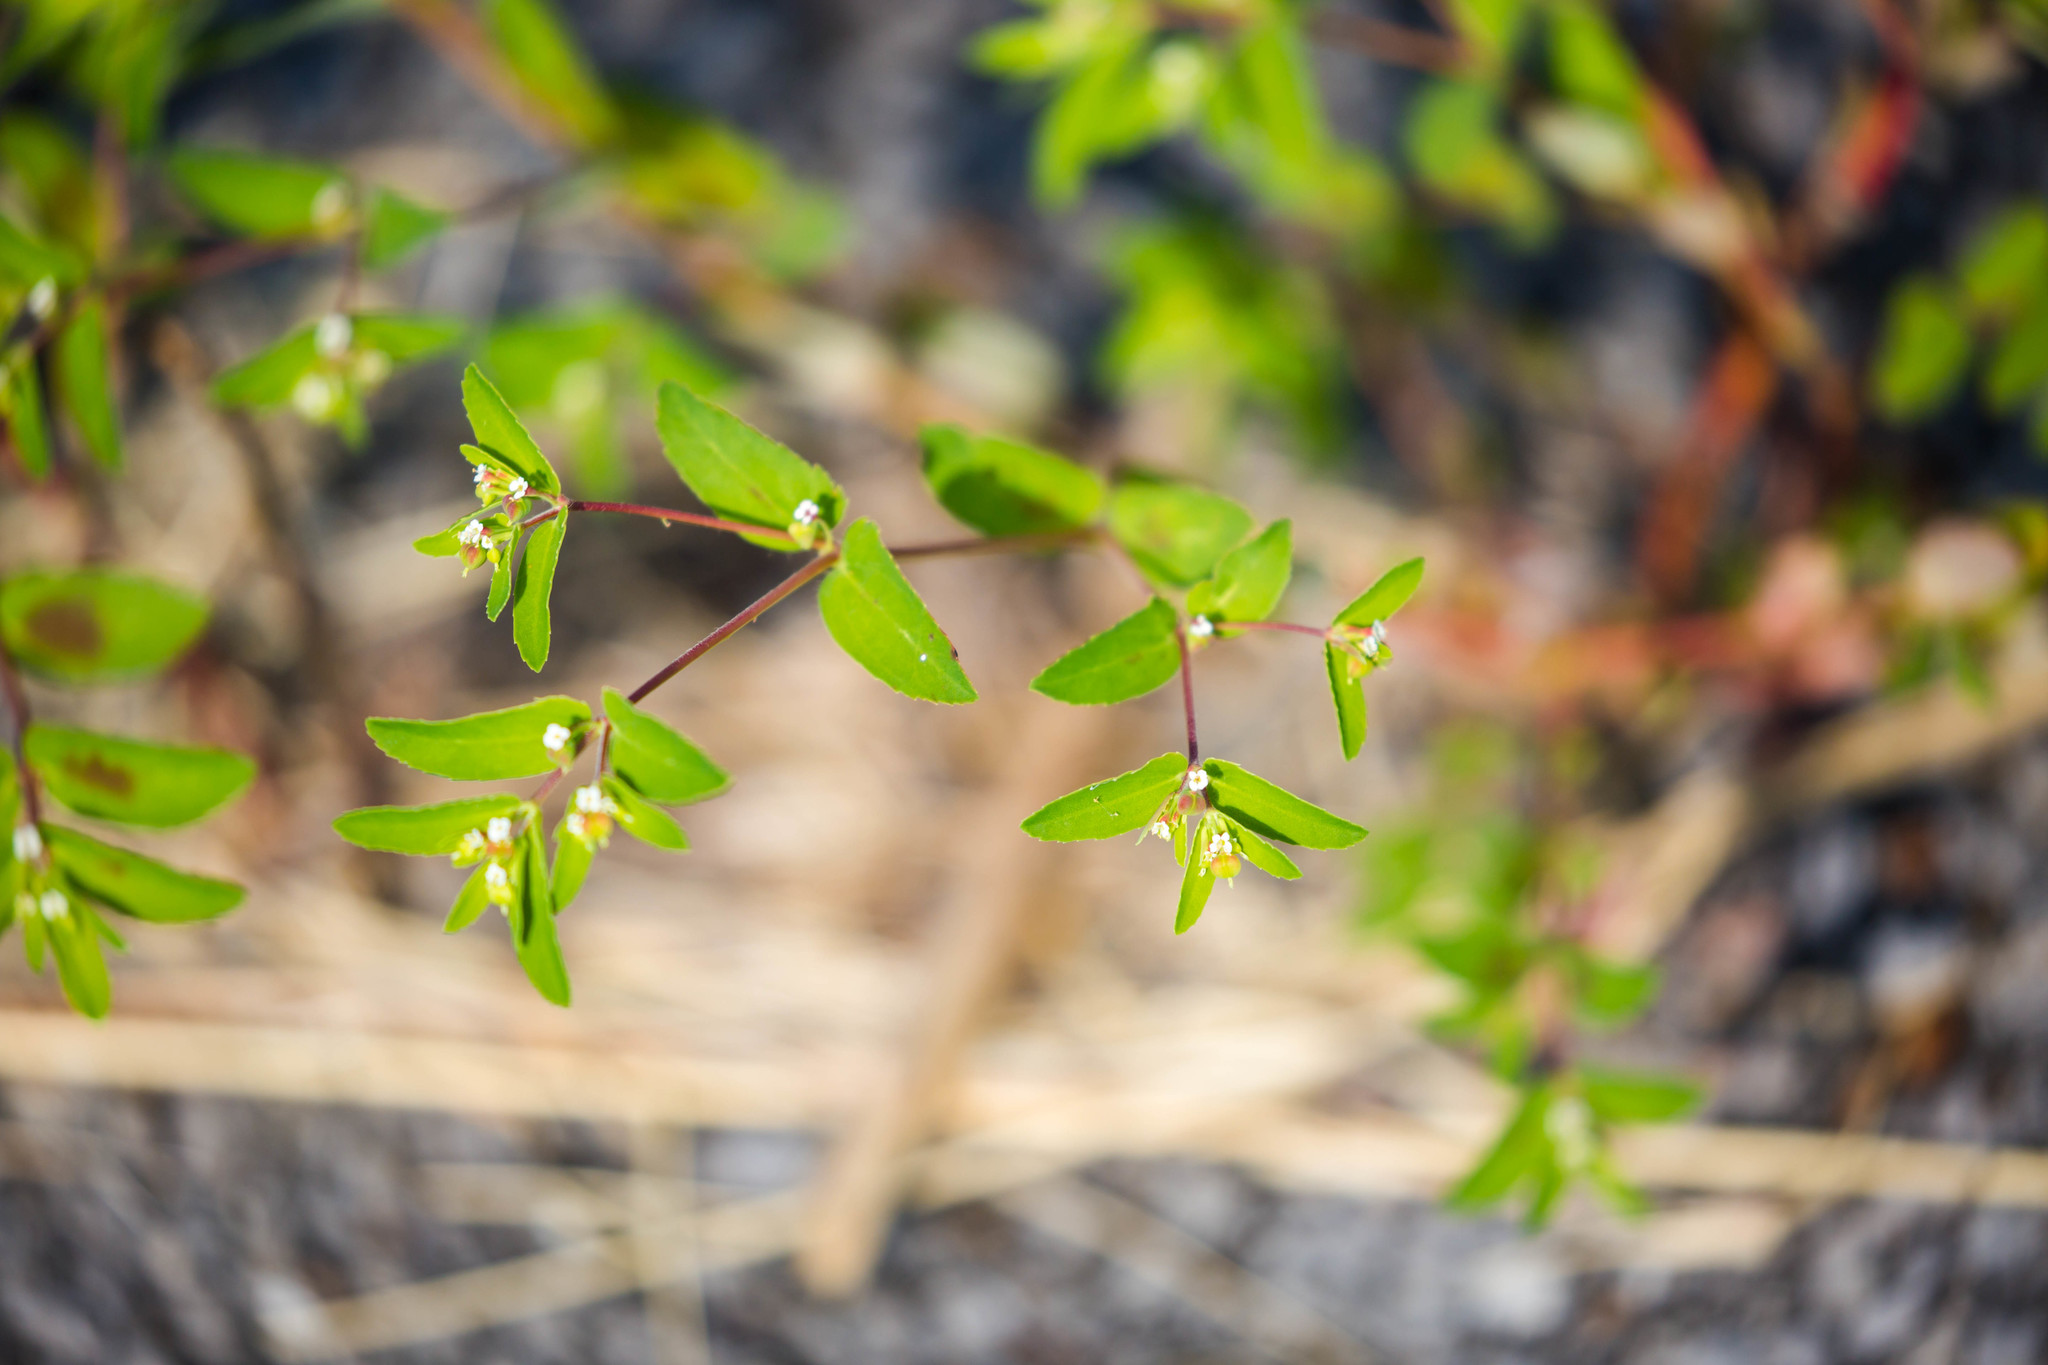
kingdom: Plantae
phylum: Tracheophyta
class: Magnoliopsida
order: Malpighiales
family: Euphorbiaceae
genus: Euphorbia
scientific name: Euphorbia nutans
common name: Eyebane
